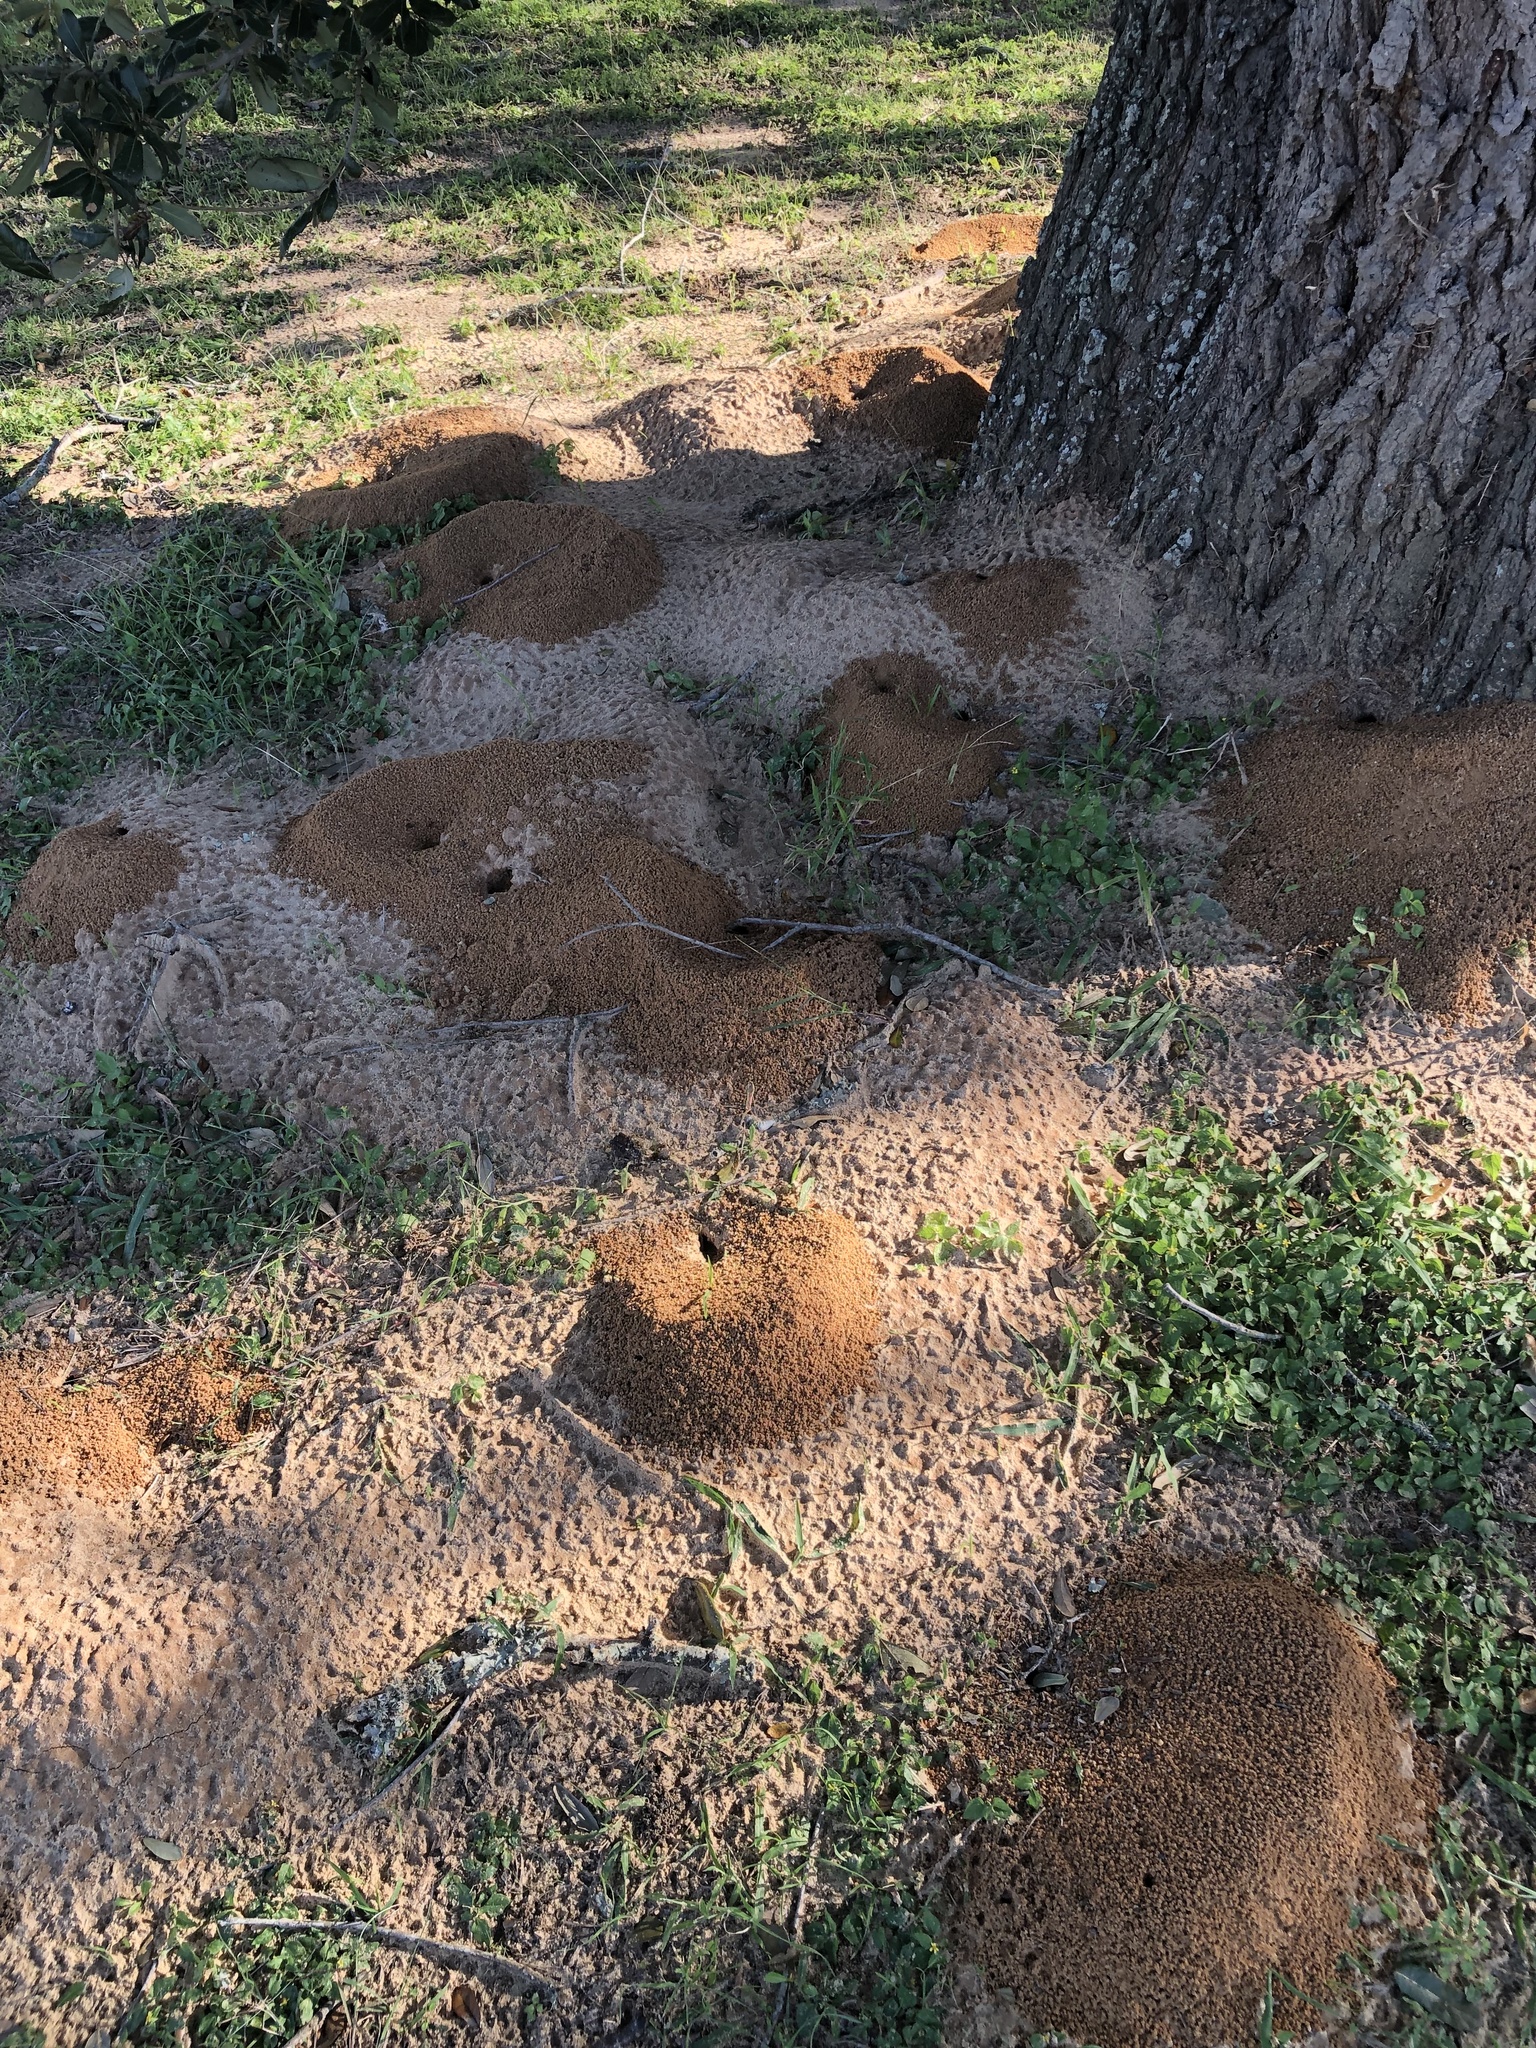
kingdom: Animalia
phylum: Arthropoda
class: Insecta
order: Hymenoptera
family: Formicidae
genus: Atta
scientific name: Atta texana
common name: Texas leafcutting ant
